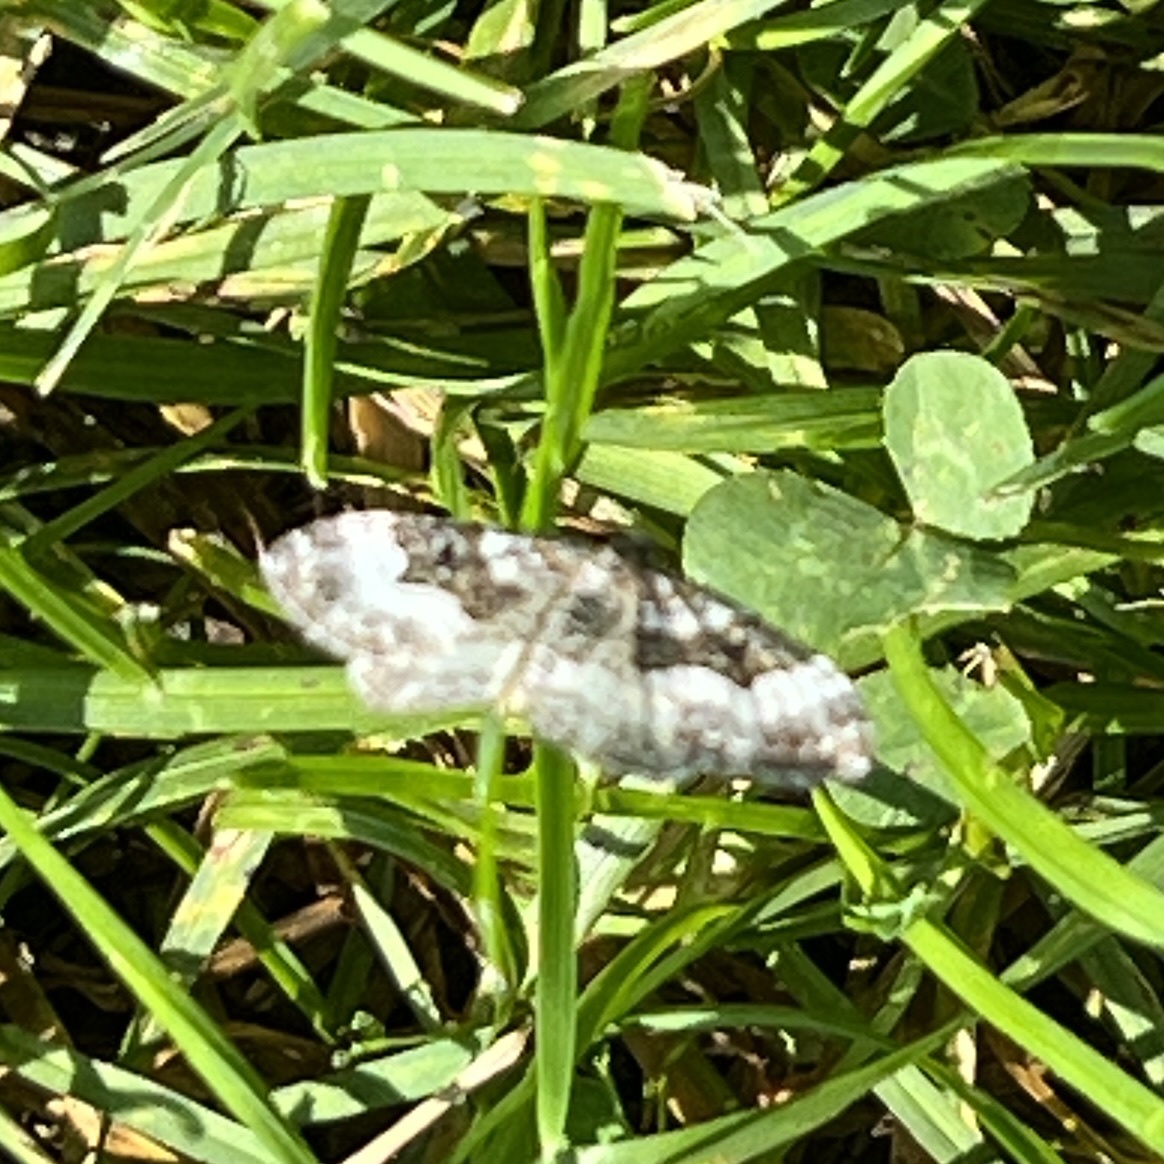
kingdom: Animalia
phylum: Arthropoda
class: Insecta
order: Lepidoptera
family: Geometridae
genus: Epirrhoe
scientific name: Epirrhoe alternata
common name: Common carpet
